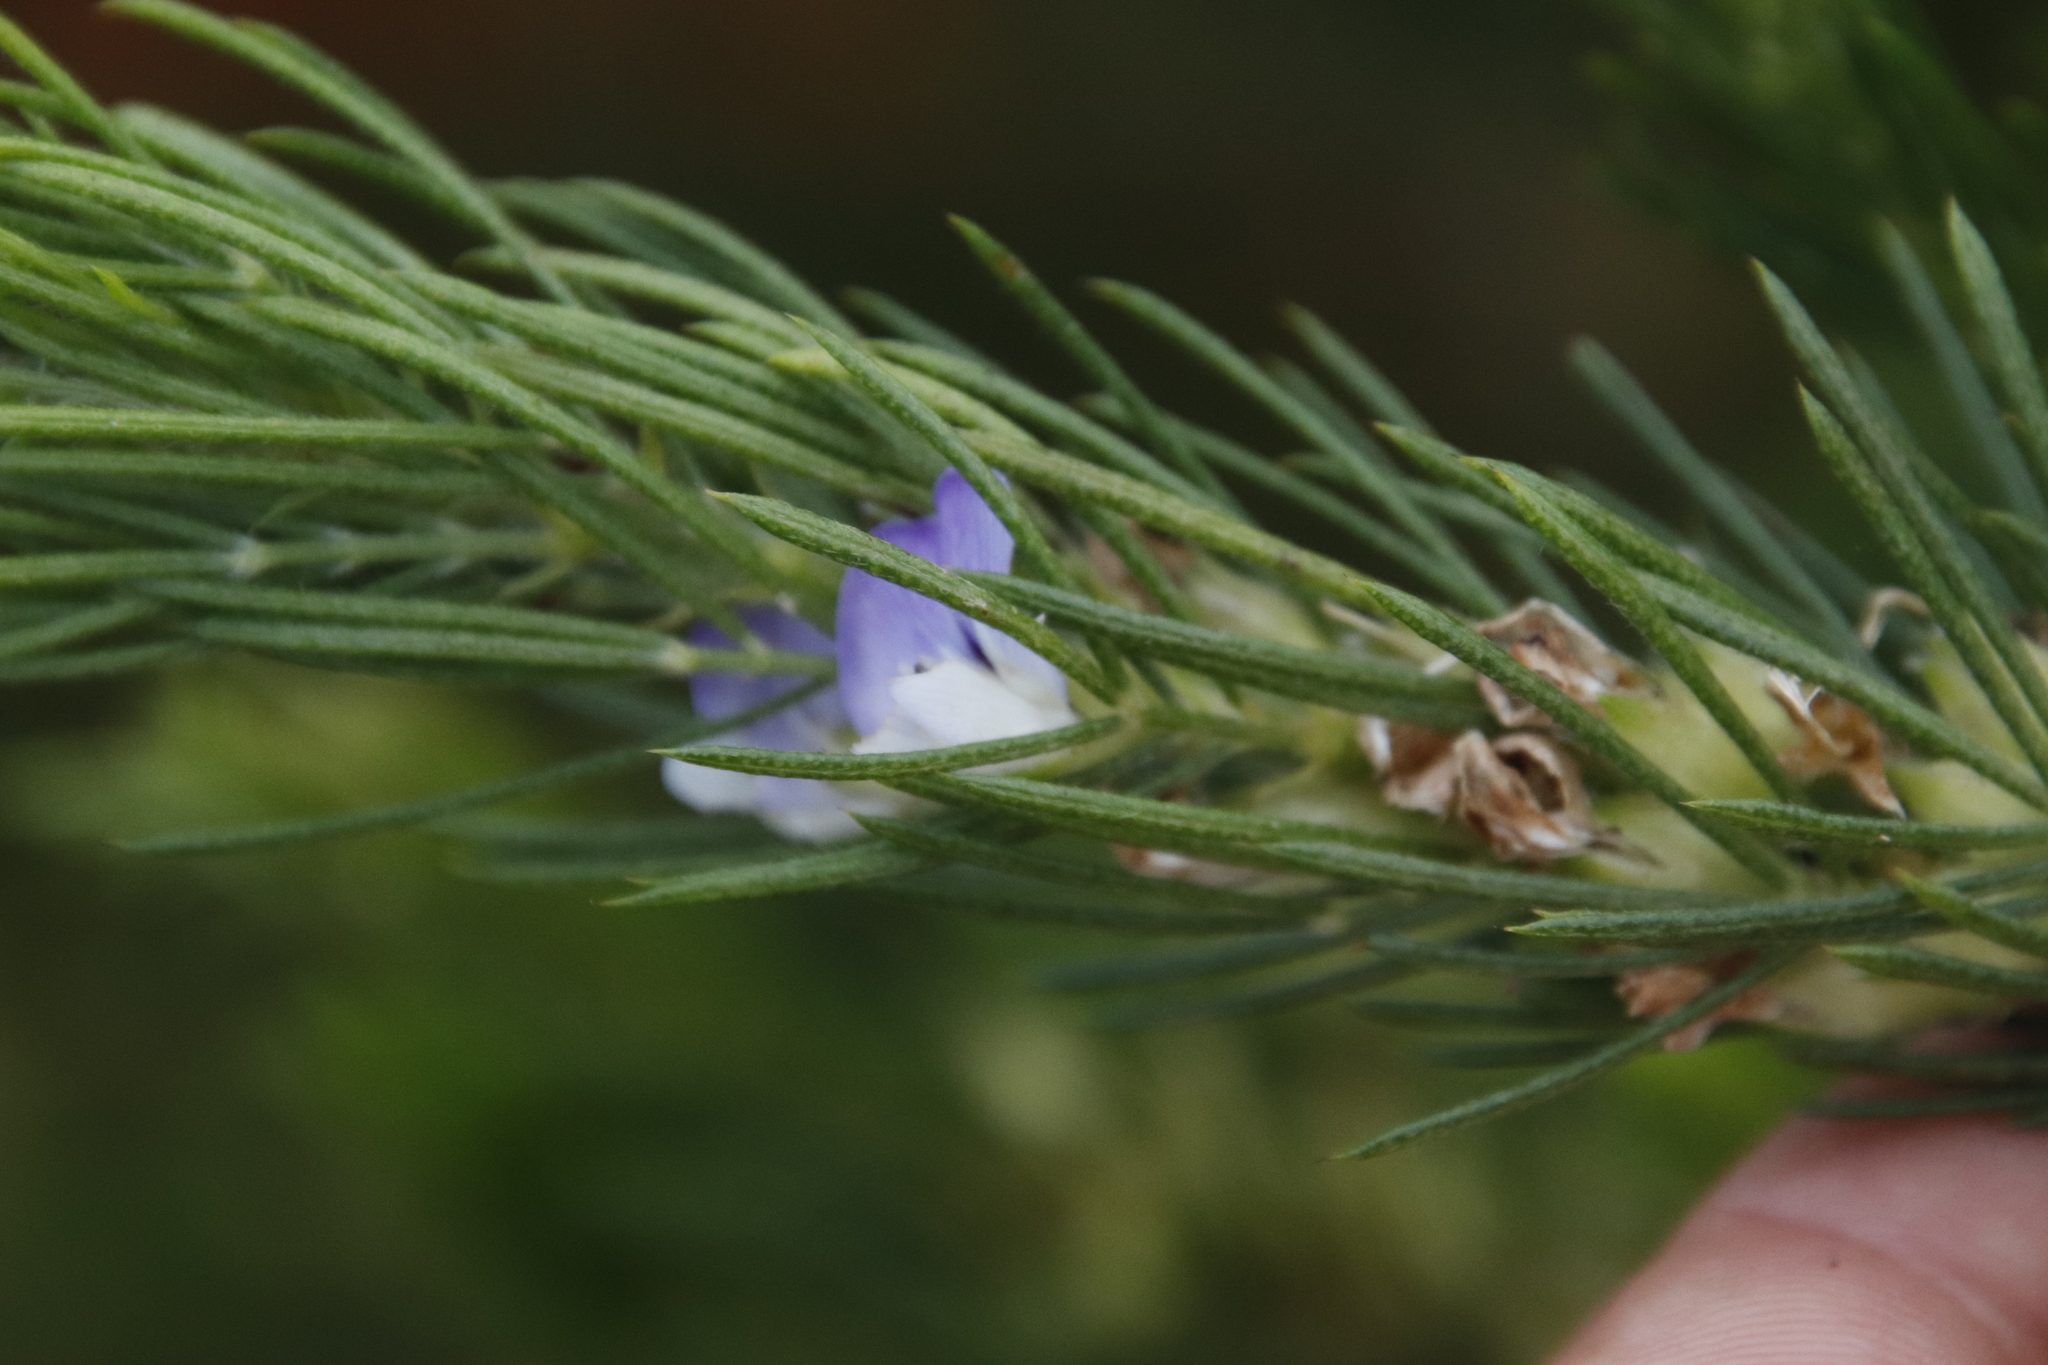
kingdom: Plantae
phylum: Tracheophyta
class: Magnoliopsida
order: Fabales
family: Fabaceae
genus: Psoralea
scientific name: Psoralea pinnata
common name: African scurfpea
